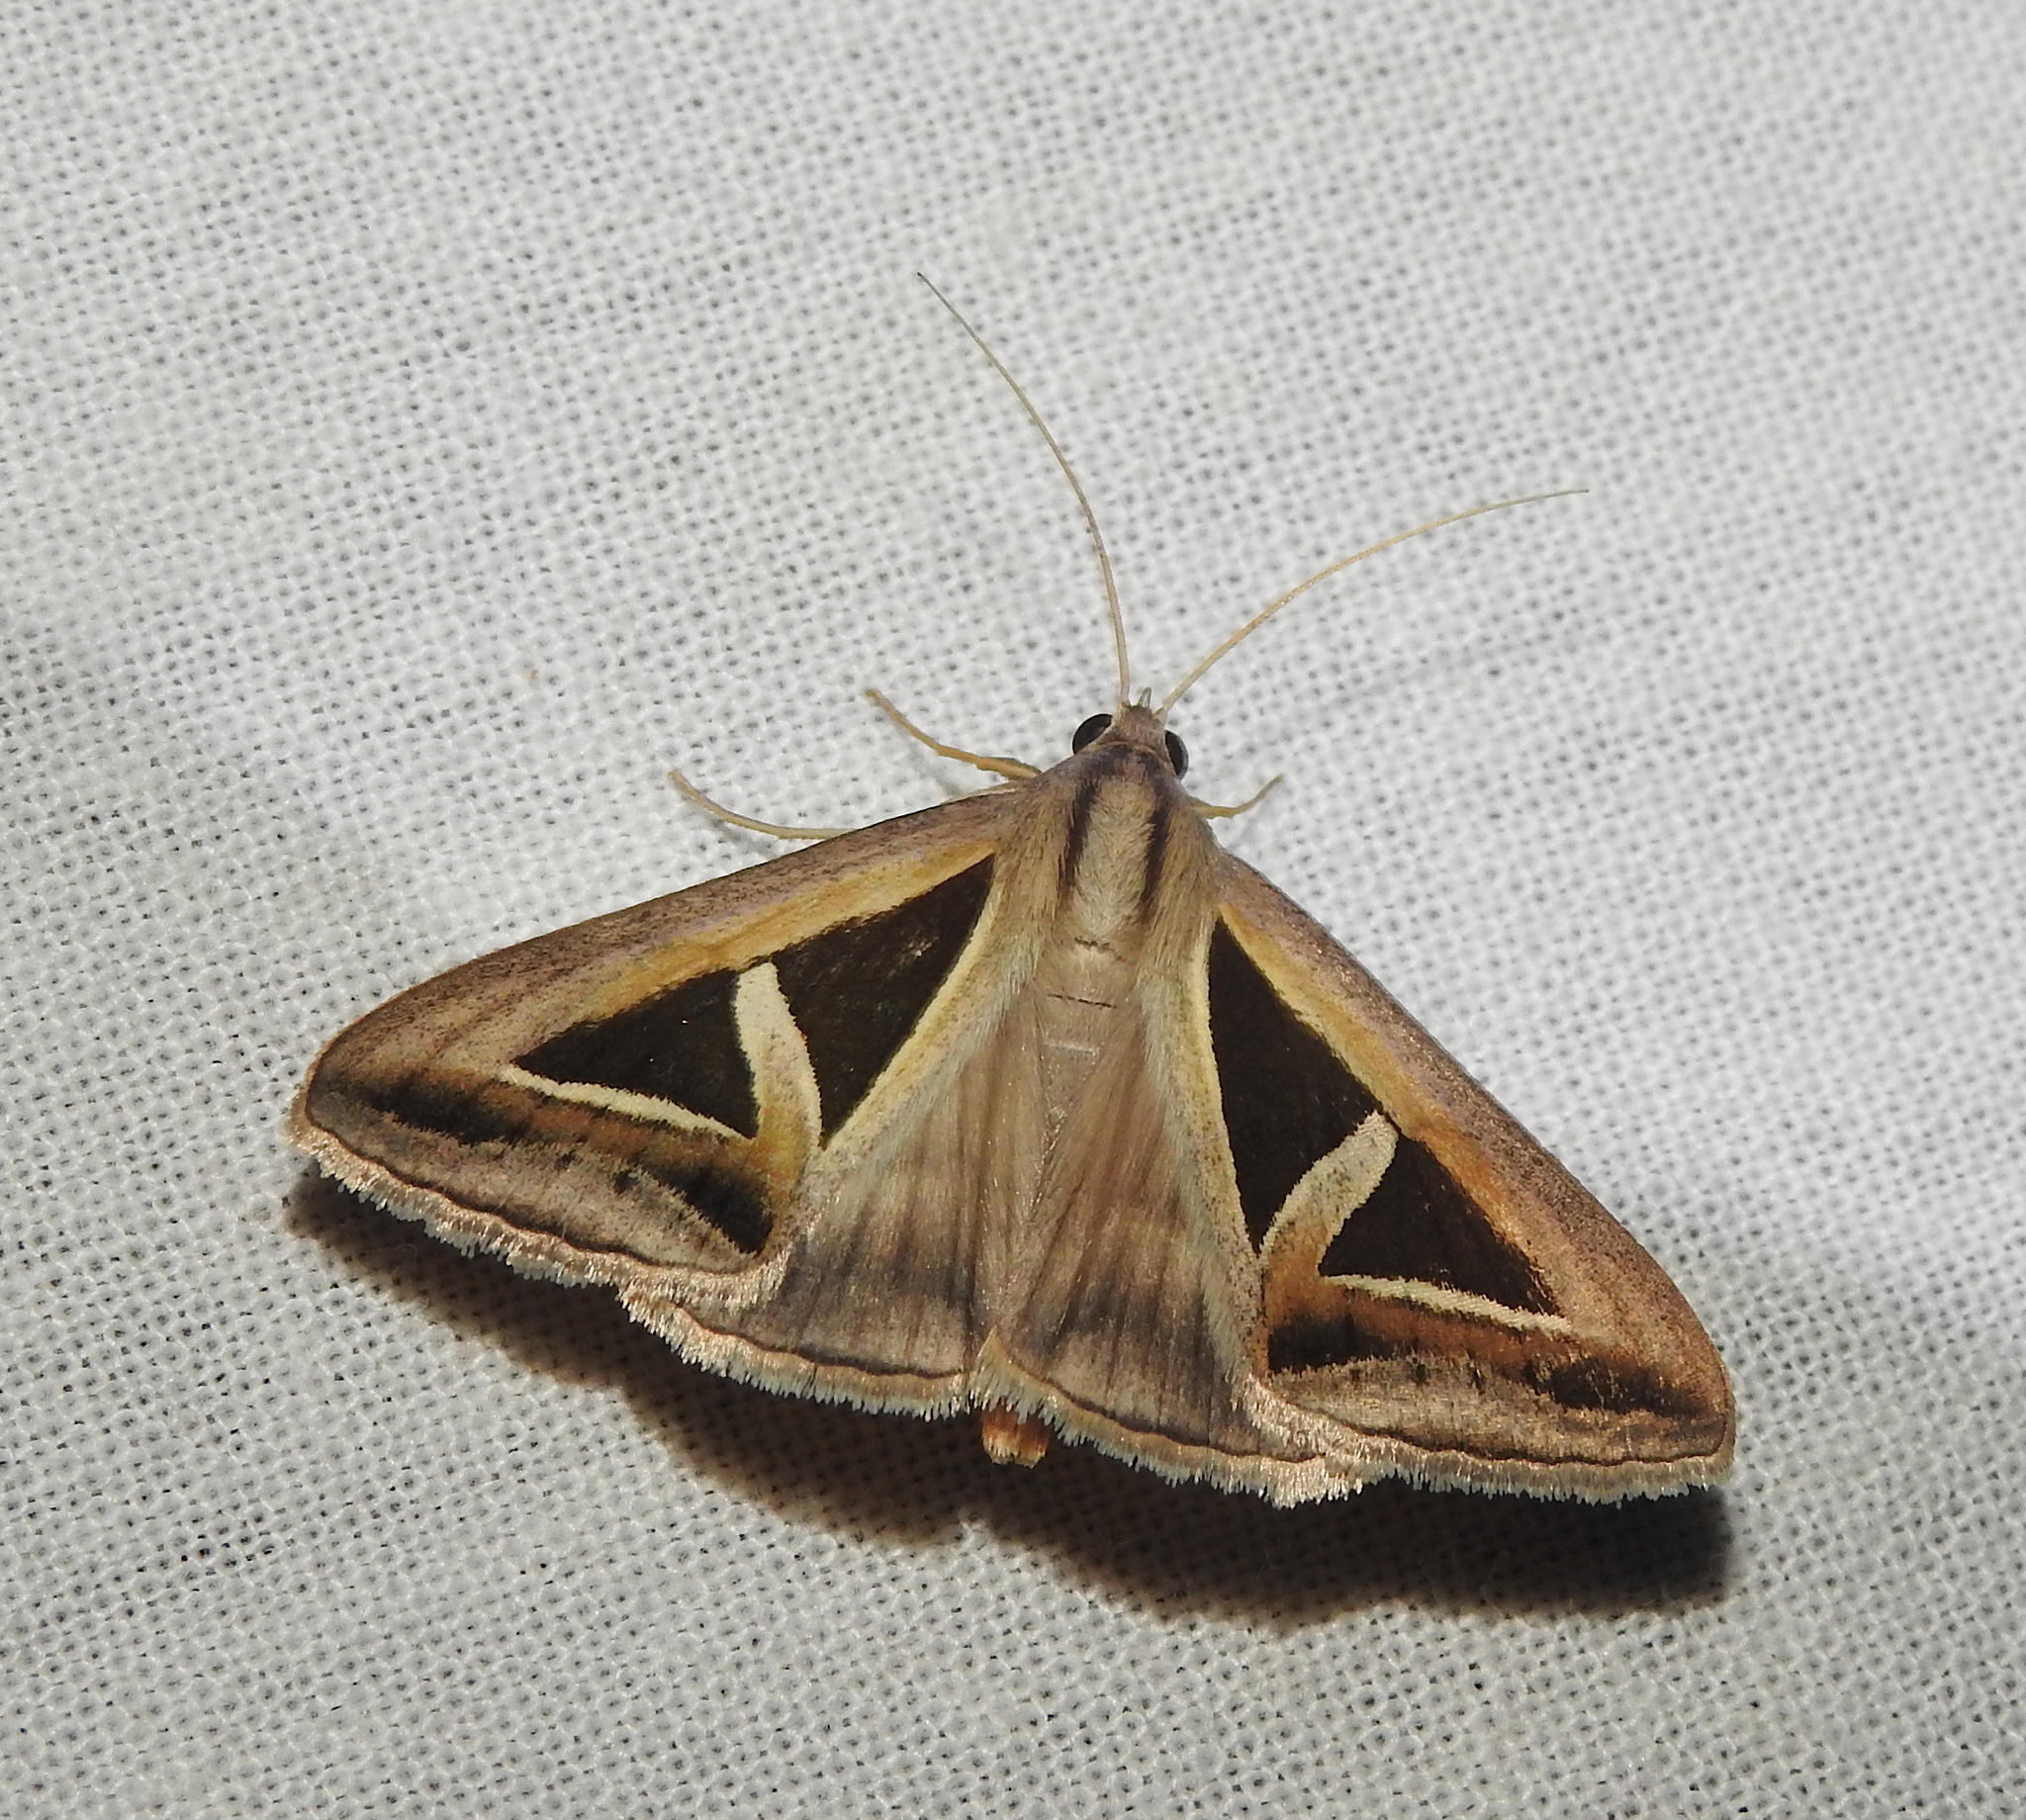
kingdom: Animalia
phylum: Arthropoda
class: Insecta
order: Lepidoptera
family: Erebidae
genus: Trigonodes
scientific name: Trigonodes hyppasia
